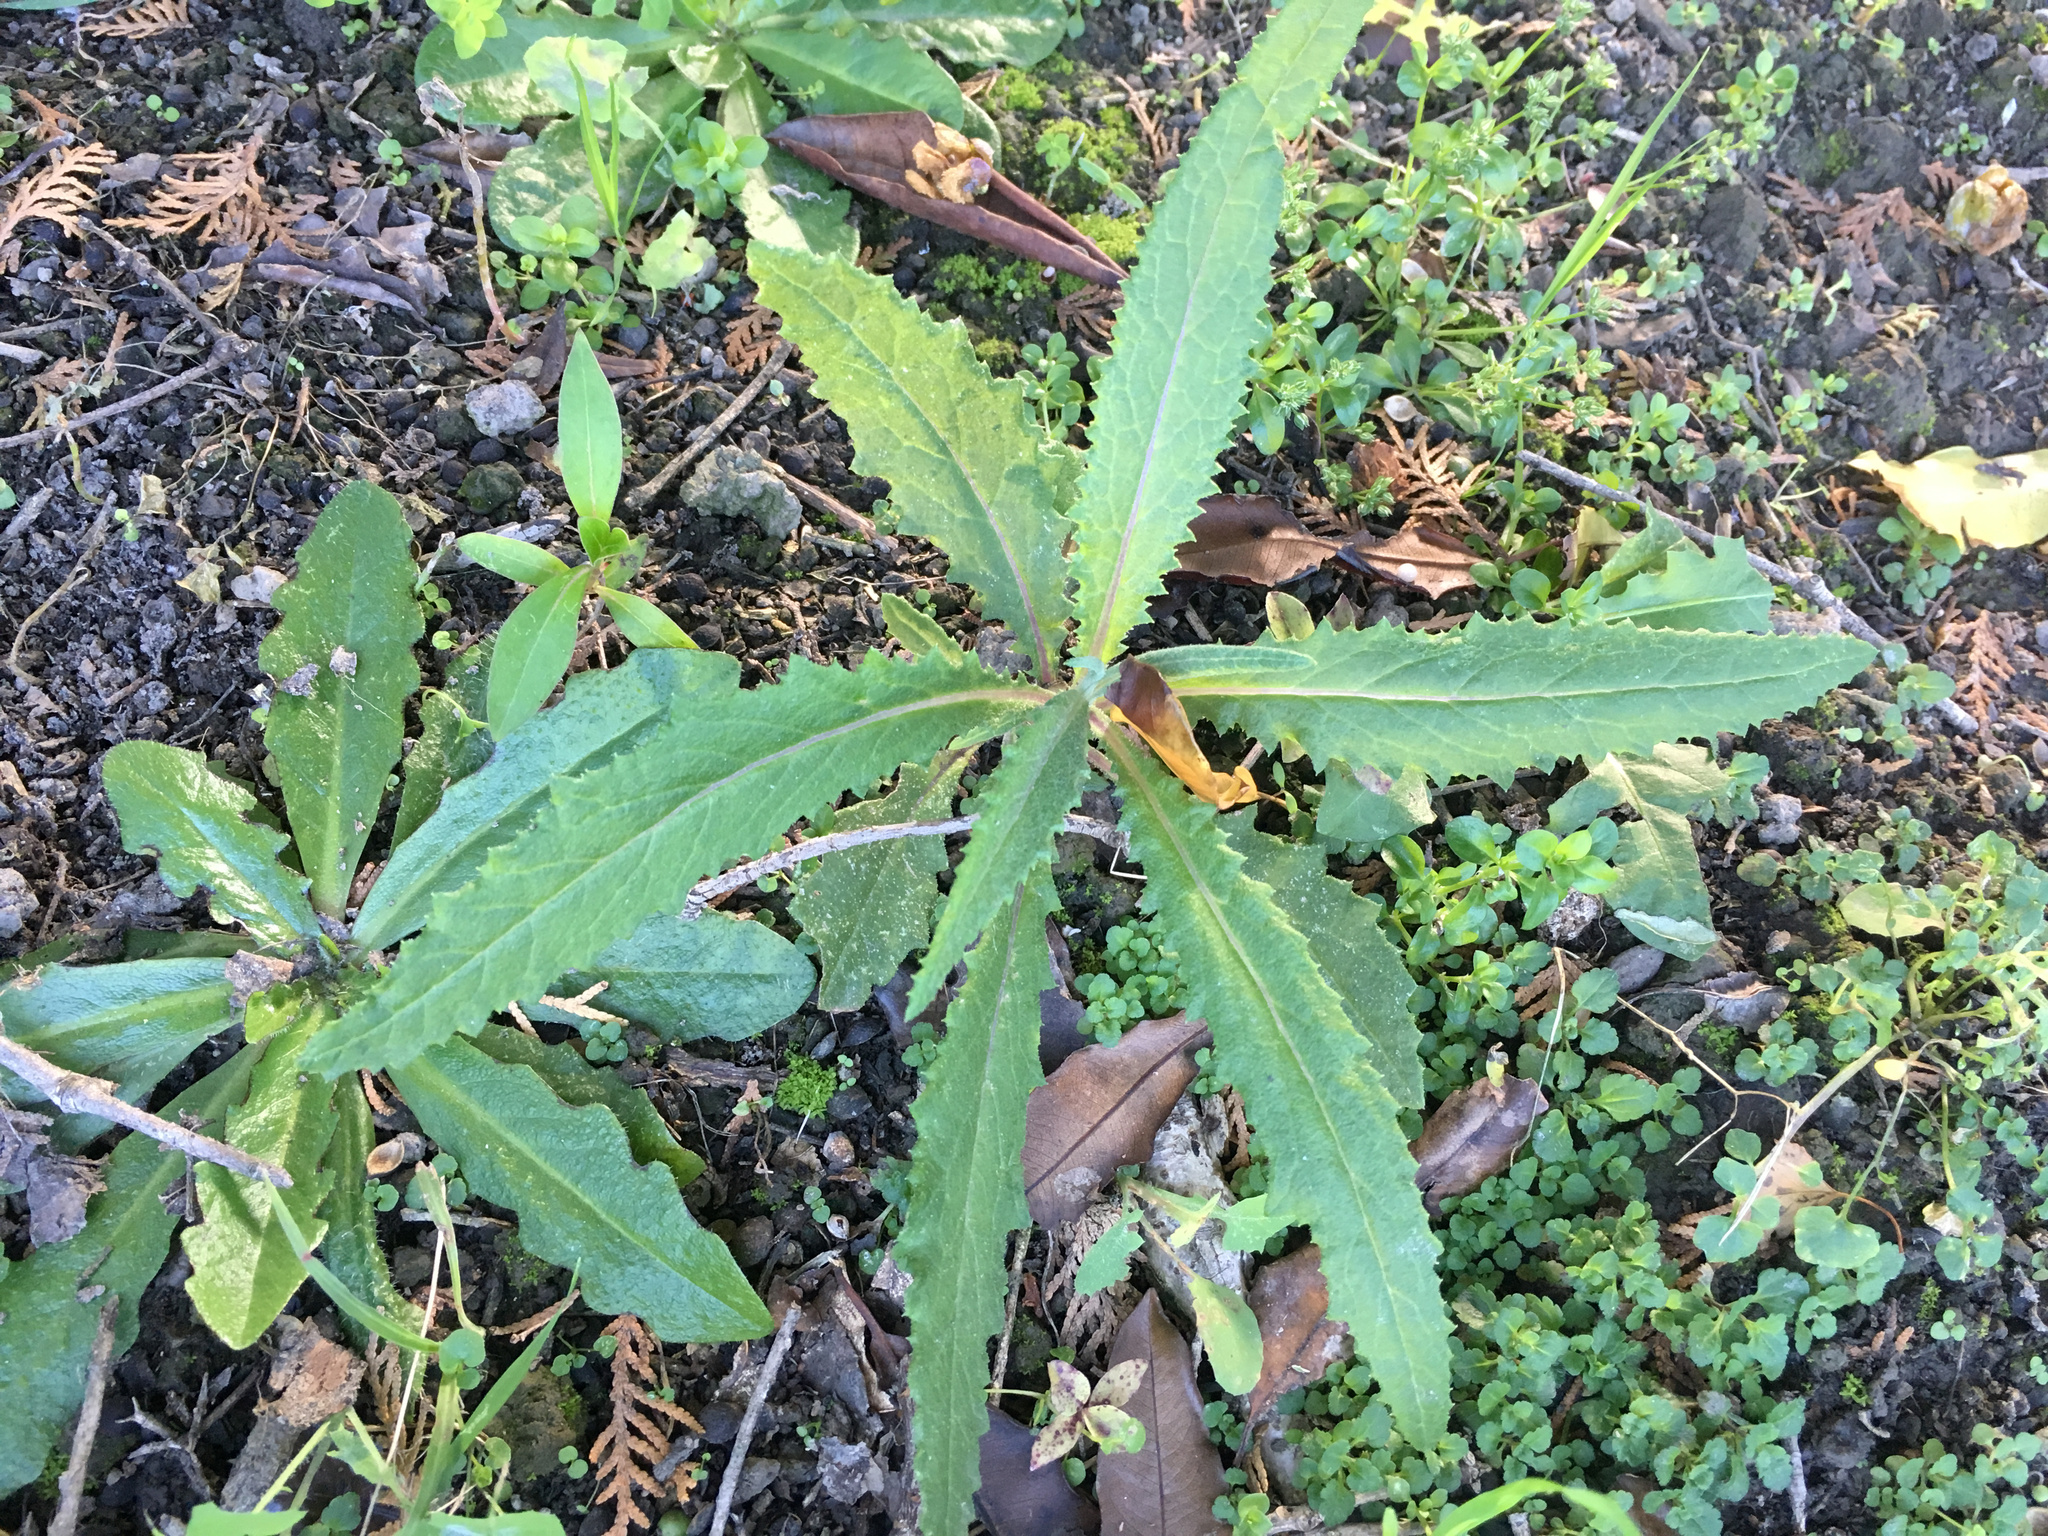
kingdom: Plantae
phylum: Tracheophyta
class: Magnoliopsida
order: Asterales
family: Asteraceae
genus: Senecio
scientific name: Senecio minimus
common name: Toothed fireweed
